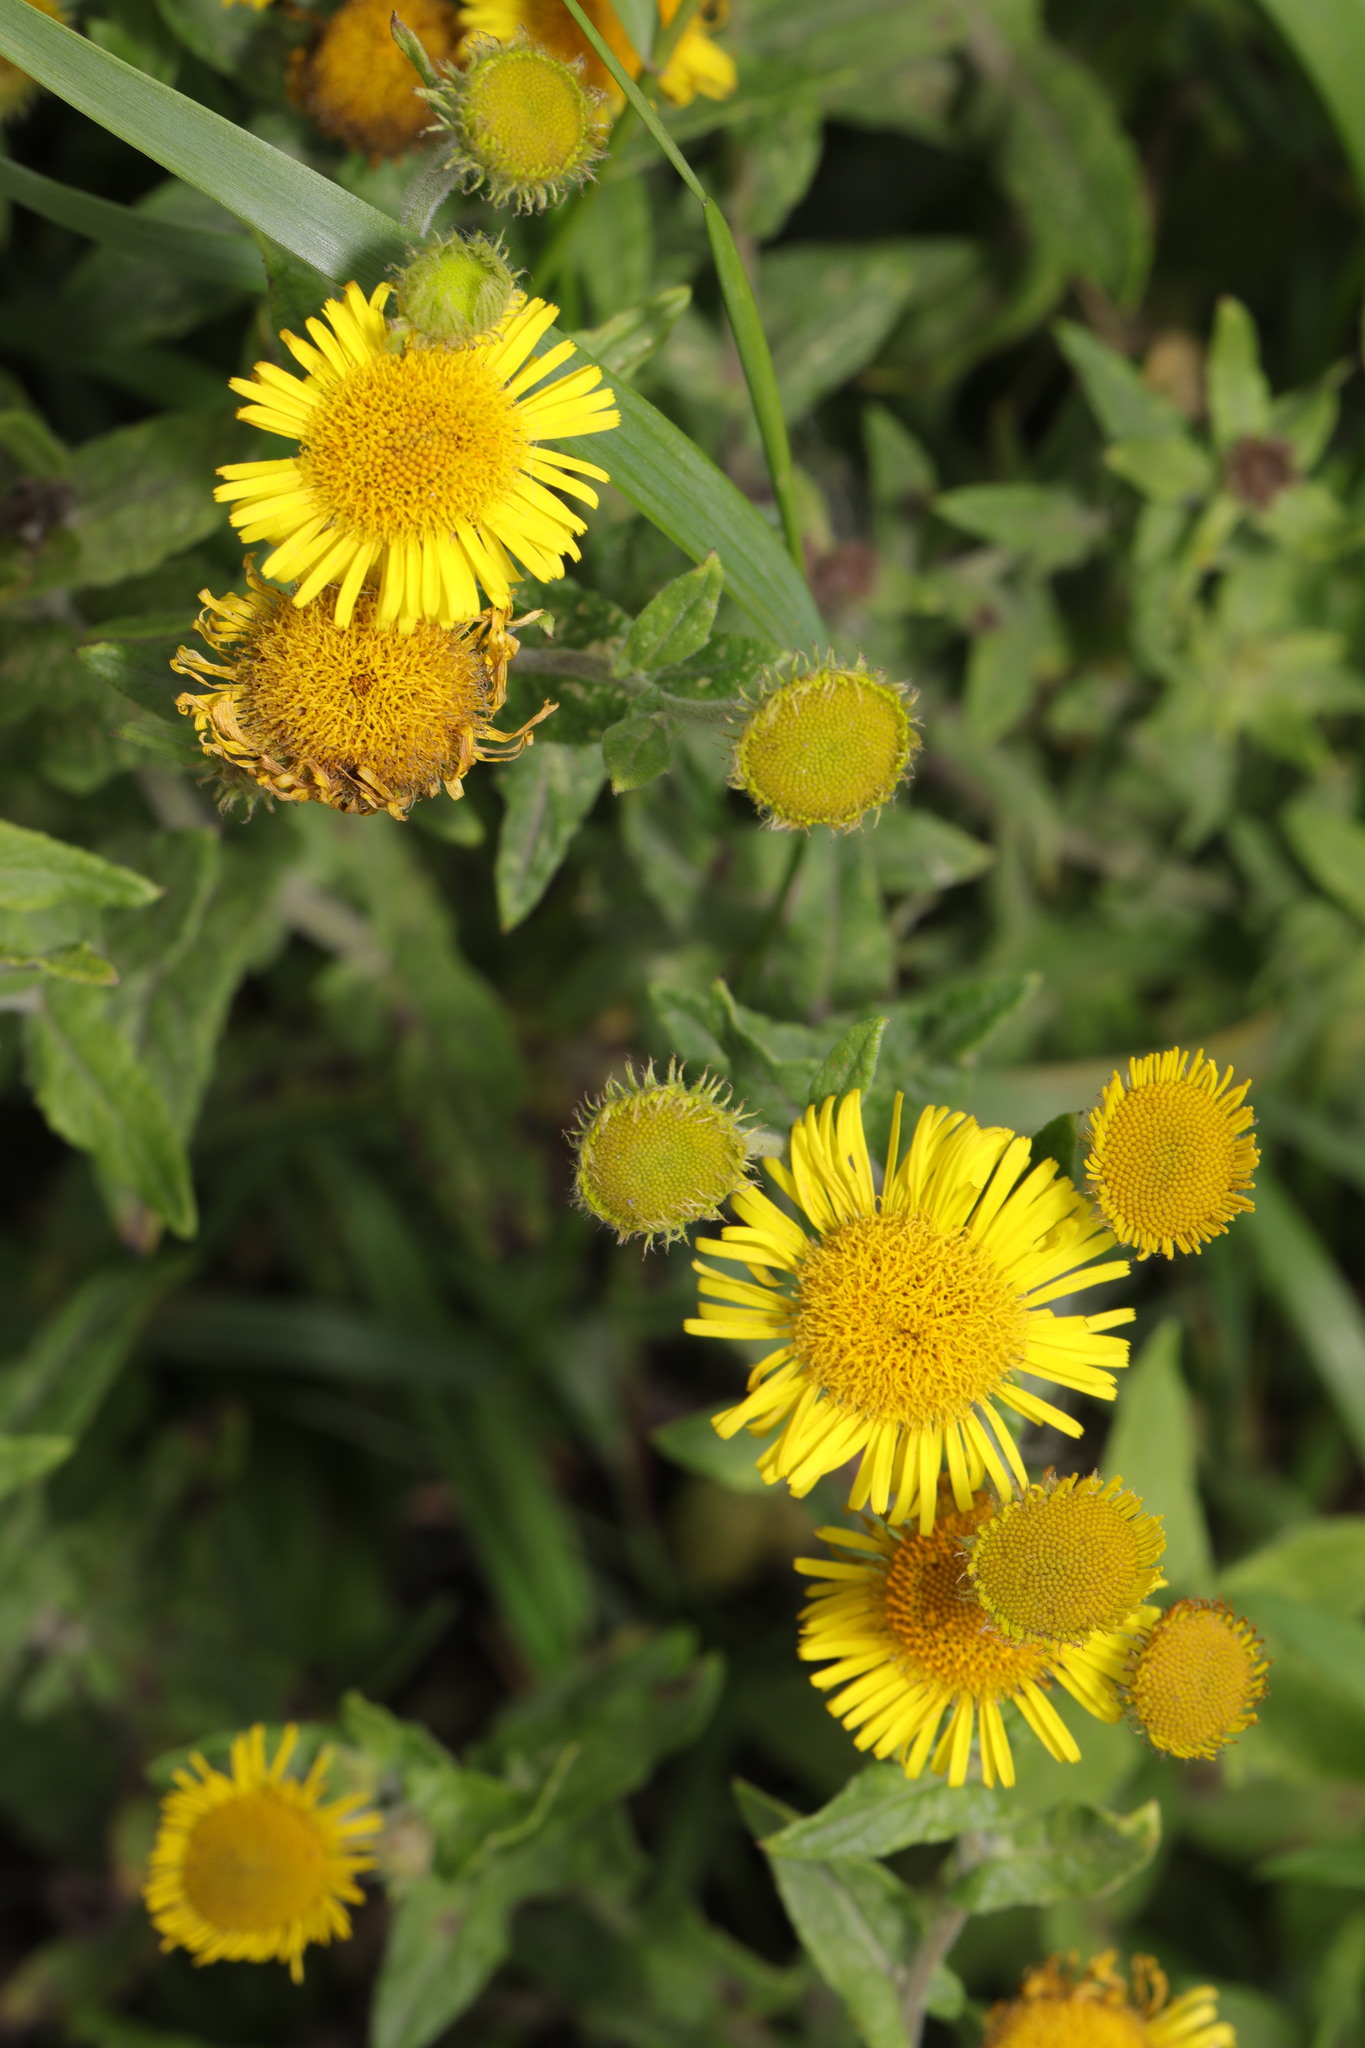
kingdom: Plantae
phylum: Tracheophyta
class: Magnoliopsida
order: Asterales
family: Asteraceae
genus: Pulicaria
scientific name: Pulicaria dysenterica
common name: Common fleabane
